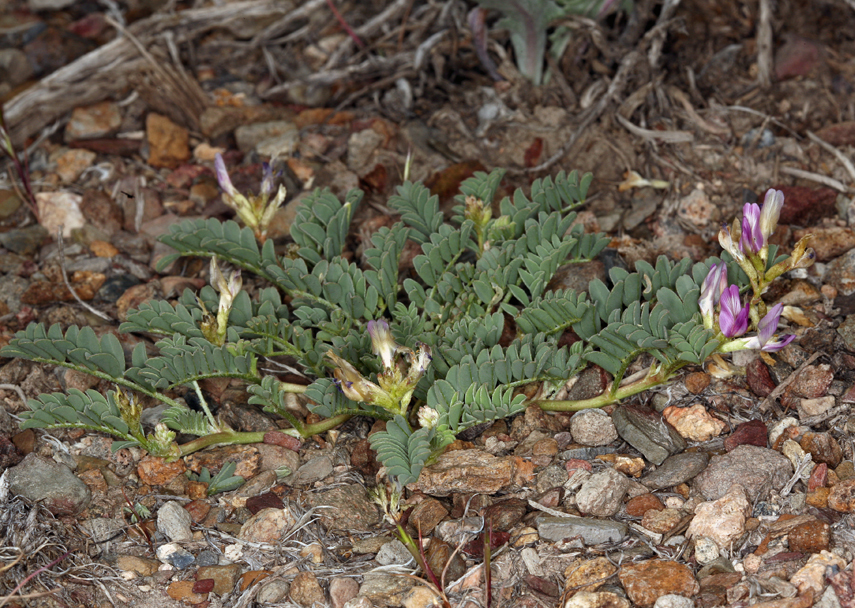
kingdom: Plantae
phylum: Tracheophyta
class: Magnoliopsida
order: Fabales
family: Fabaceae
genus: Astragalus
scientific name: Astragalus lentiginosus
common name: Freckled milkvetch
